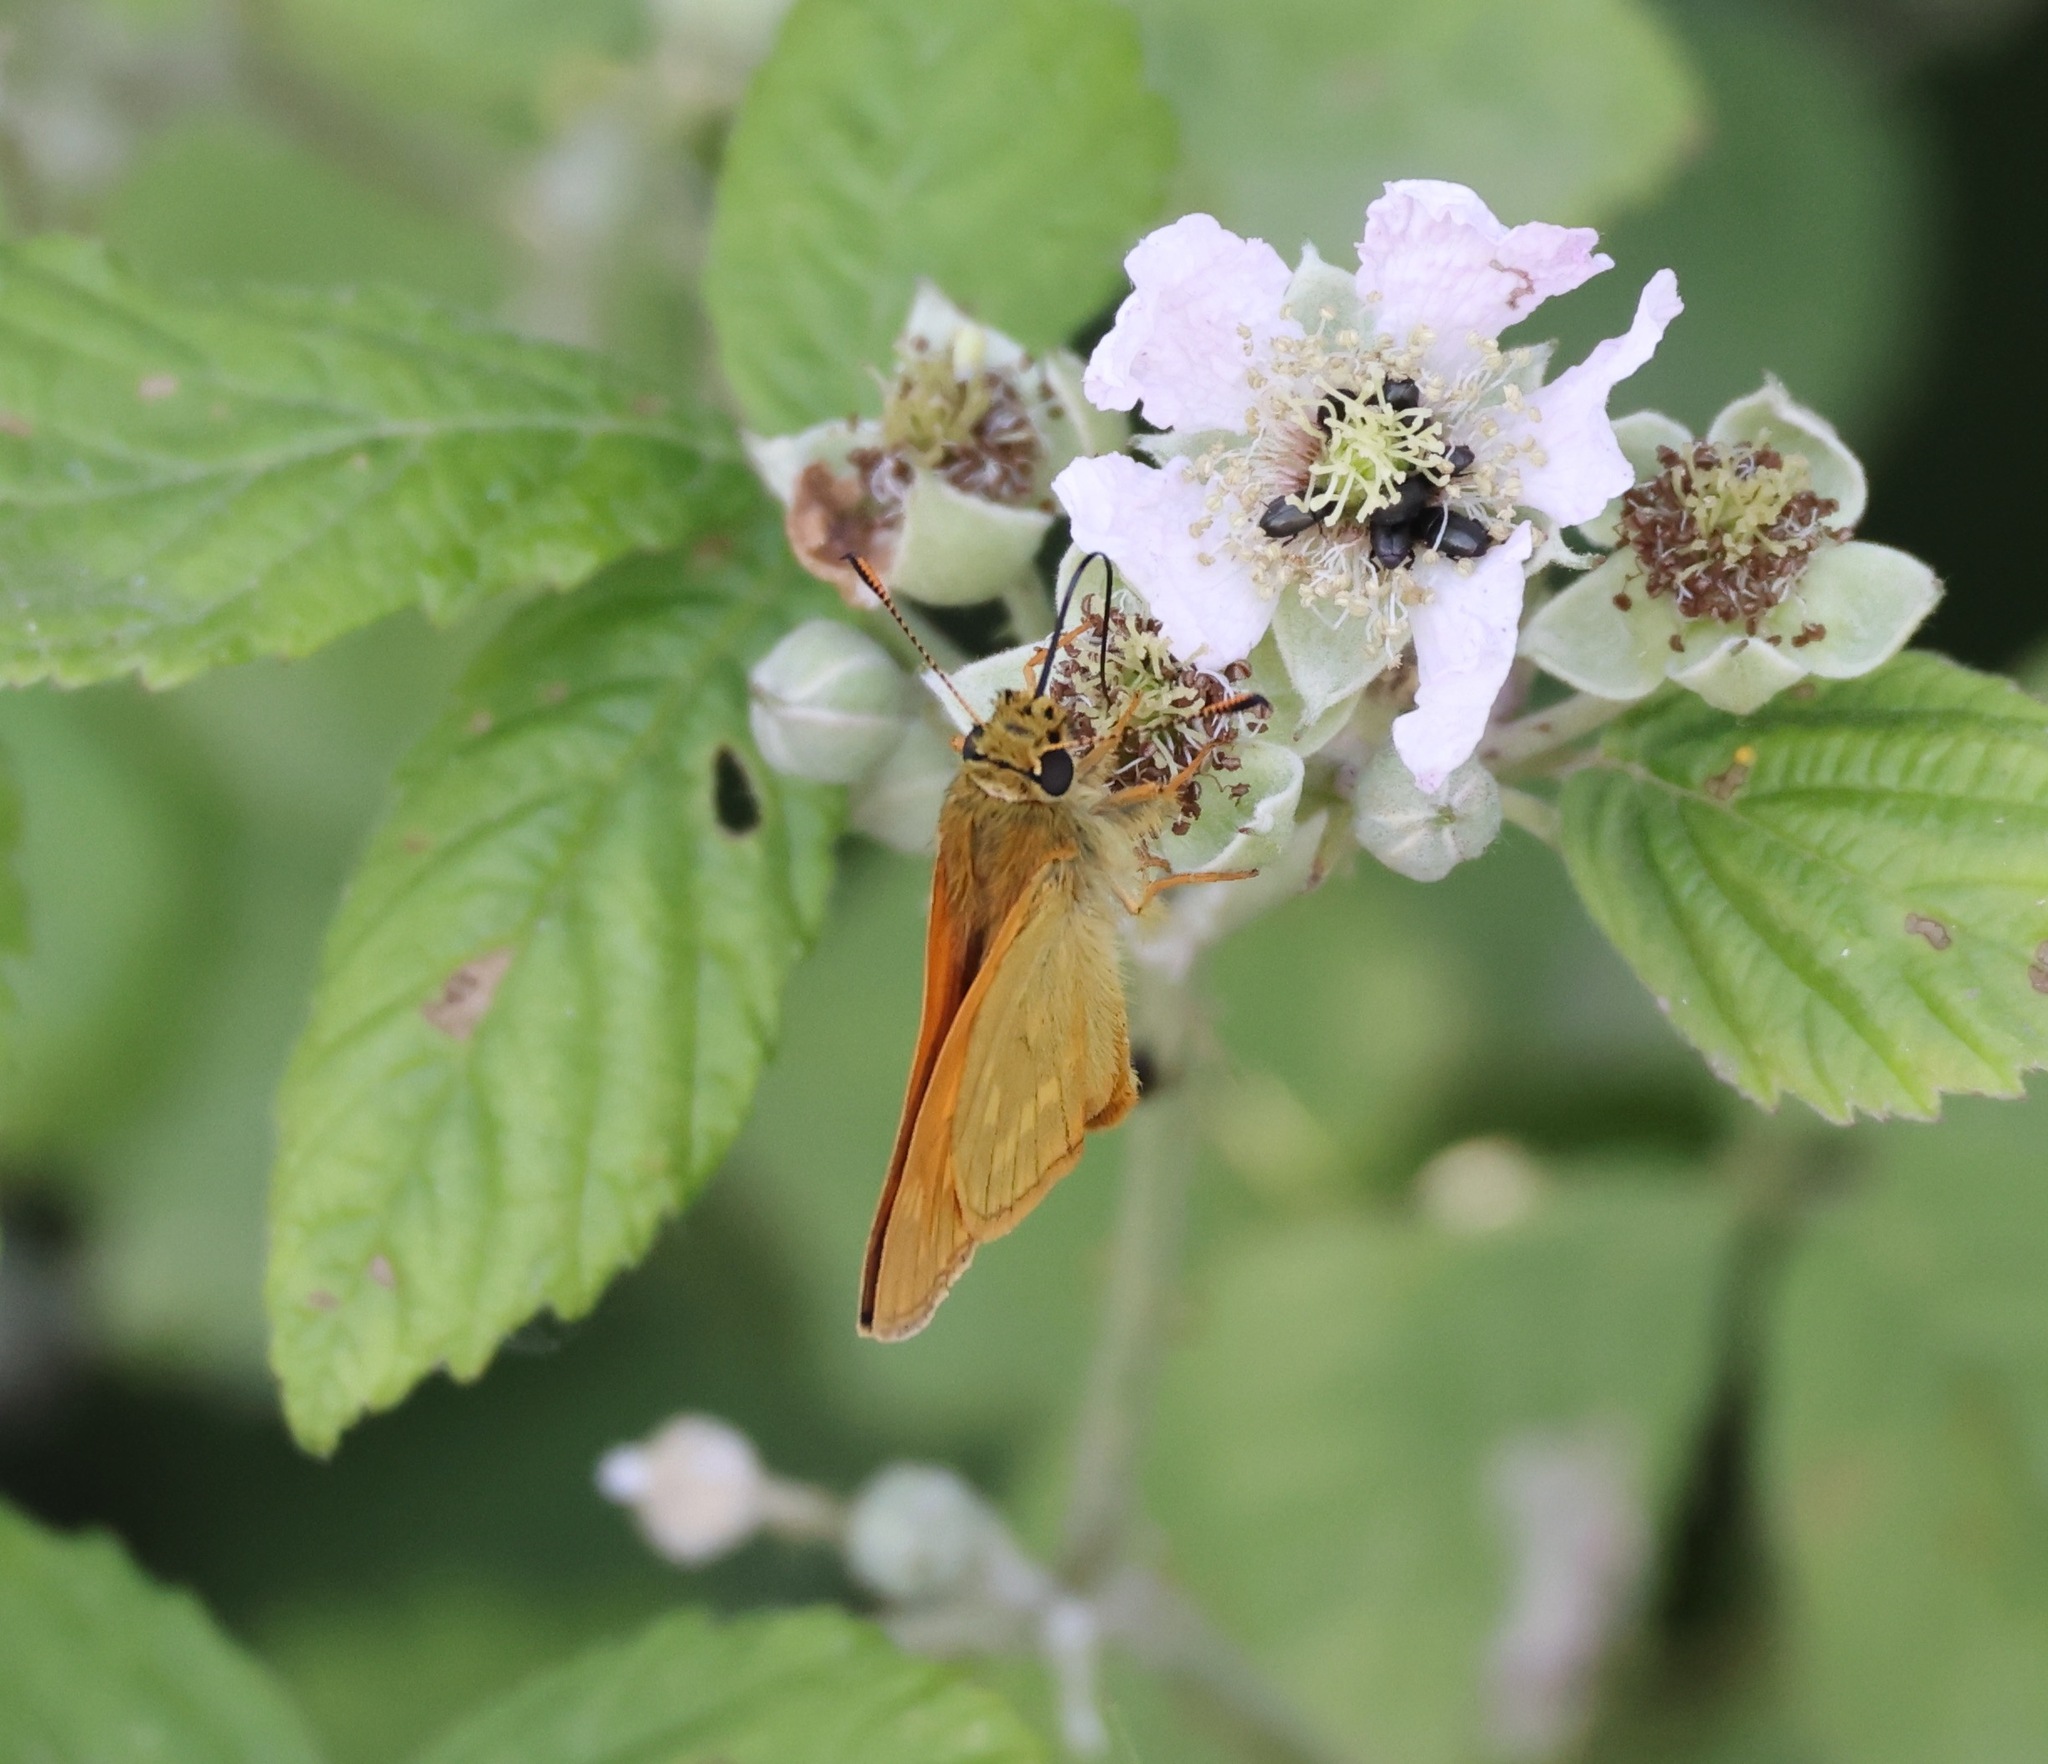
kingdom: Animalia
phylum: Arthropoda
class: Insecta
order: Lepidoptera
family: Hesperiidae
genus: Ochlodes
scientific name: Ochlodes venata
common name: Large skipper
